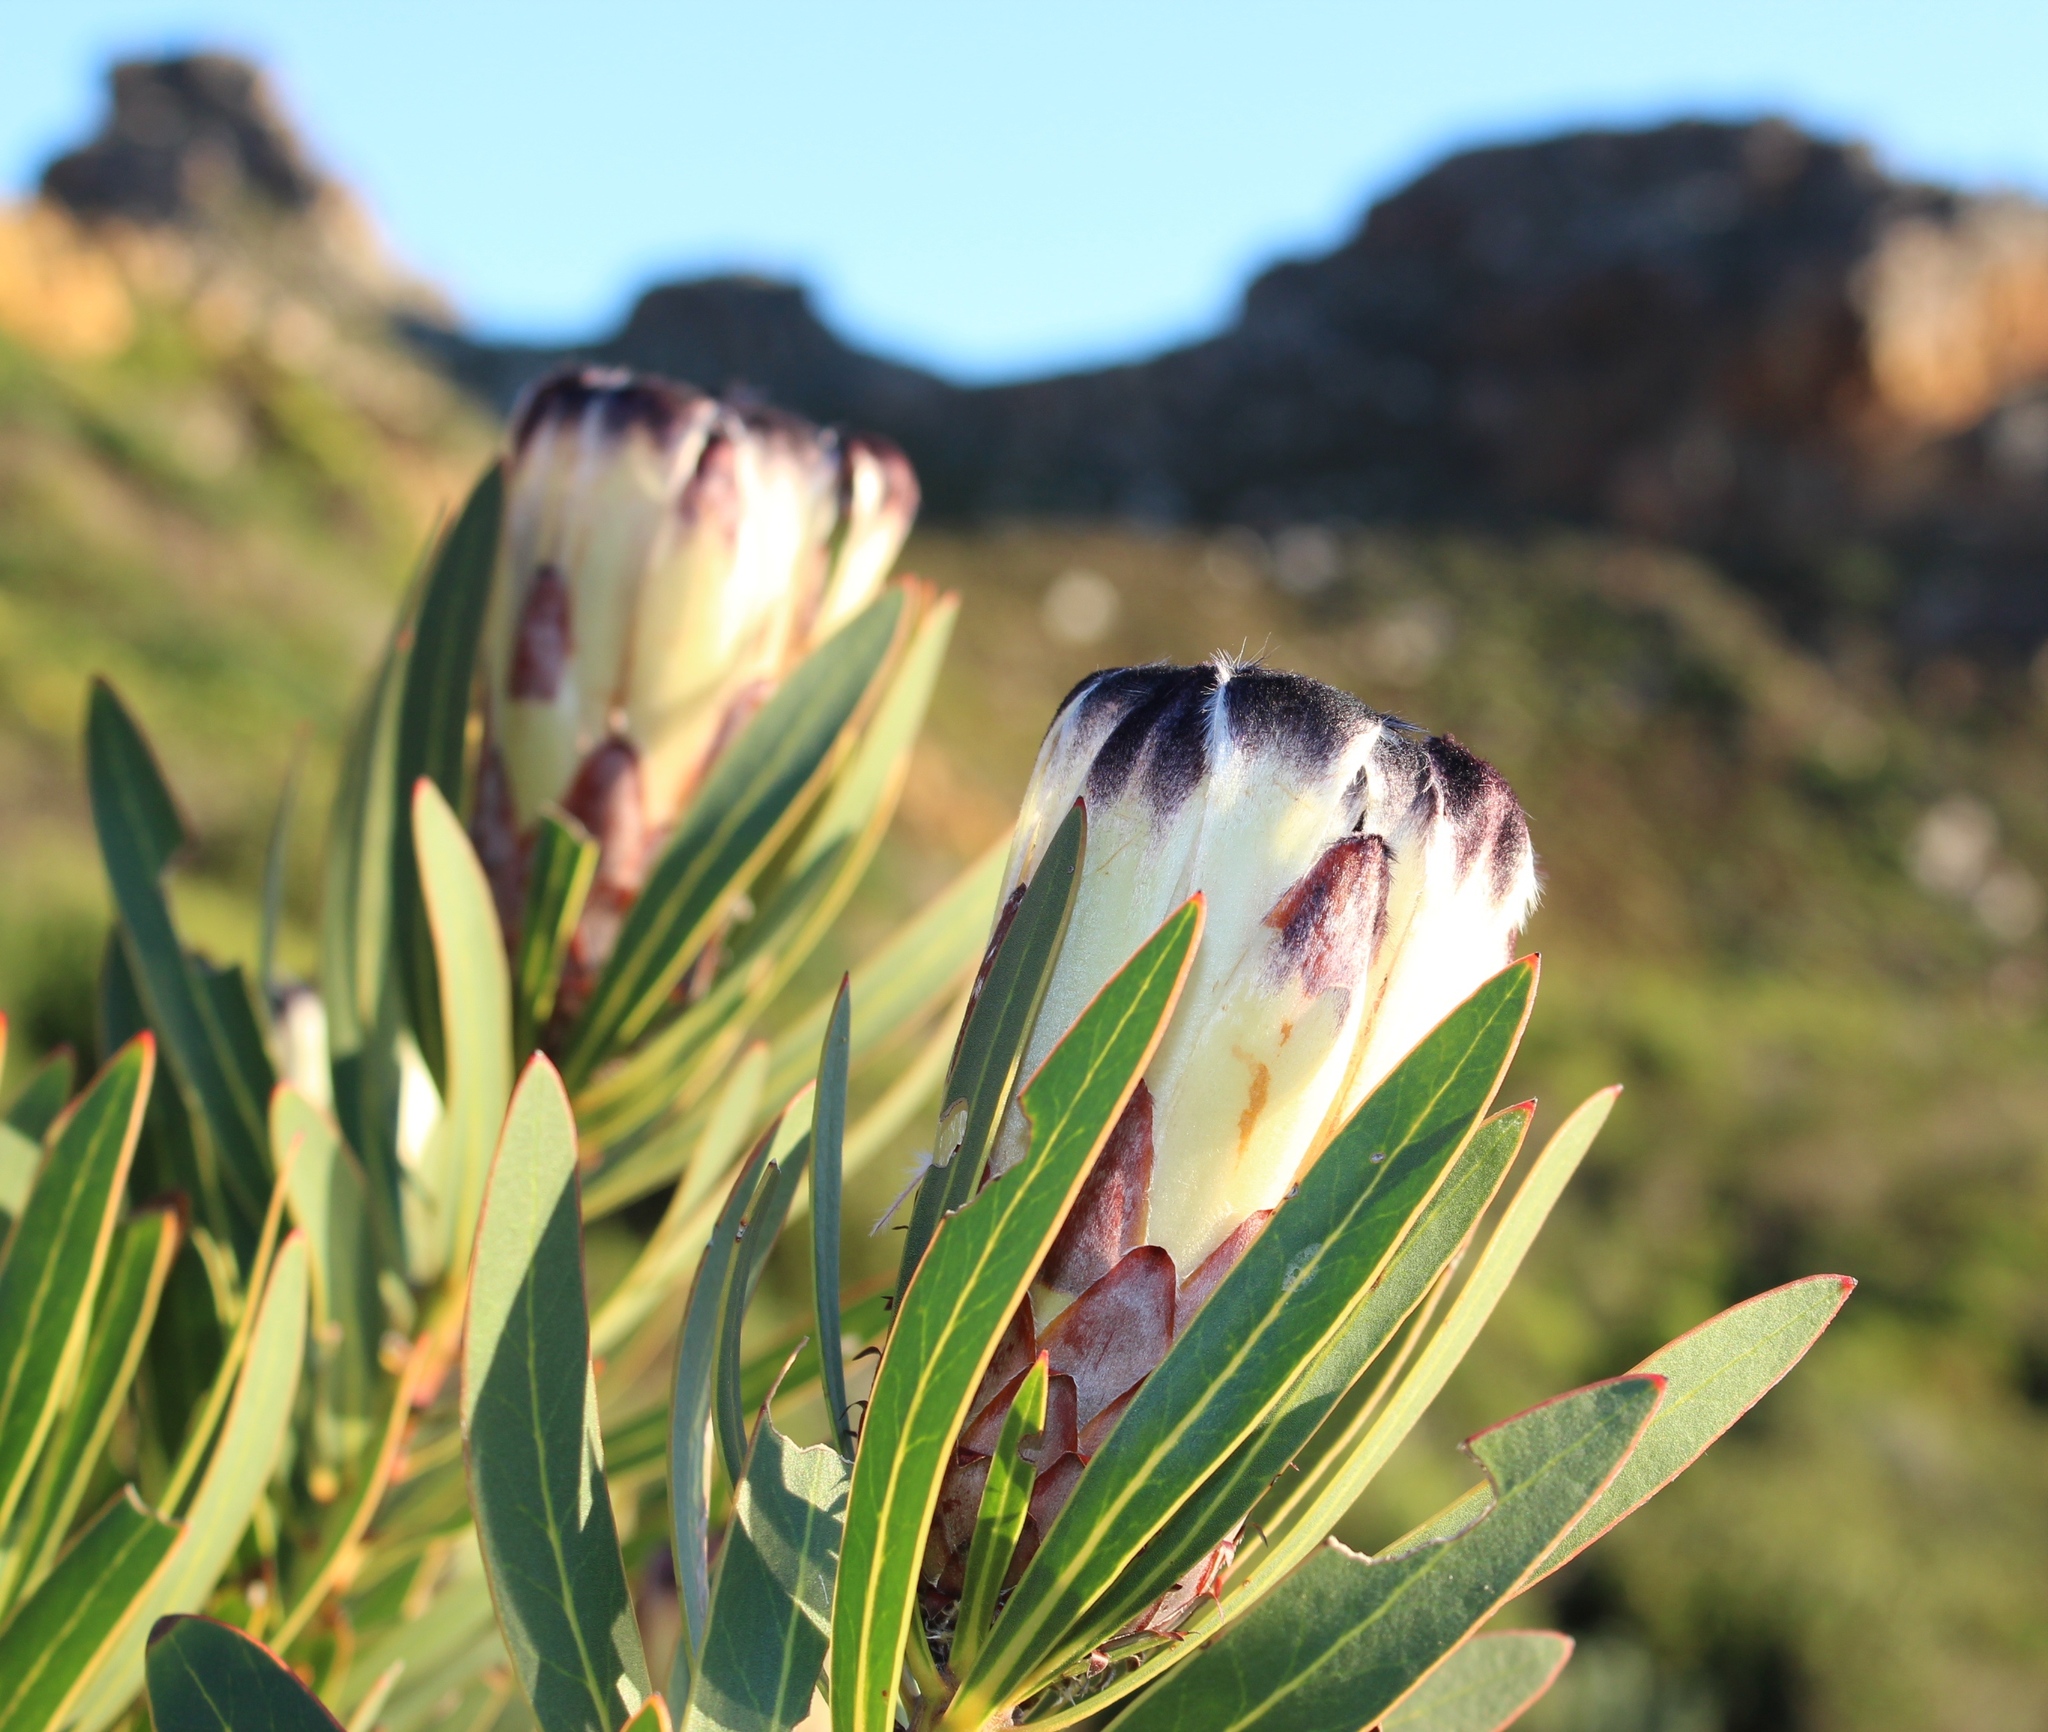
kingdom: Plantae
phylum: Tracheophyta
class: Magnoliopsida
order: Proteales
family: Proteaceae
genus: Protea
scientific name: Protea lepidocarpodendron
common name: Black-bearded protea
